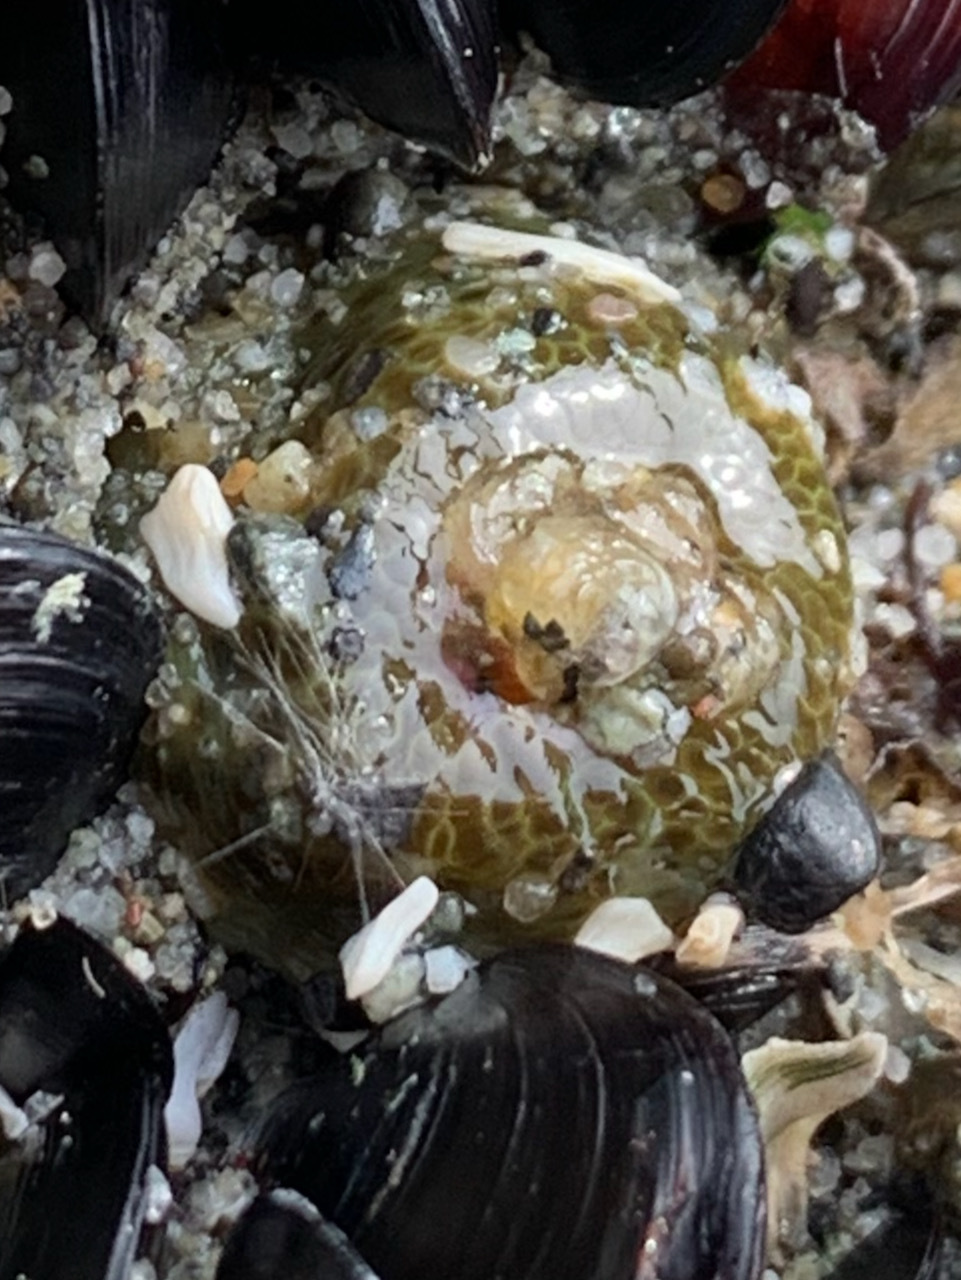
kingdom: Animalia
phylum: Cnidaria
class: Anthozoa
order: Actiniaria
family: Actiniidae
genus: Anthopleura
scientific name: Anthopleura elegantissima
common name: Clonal anemone
